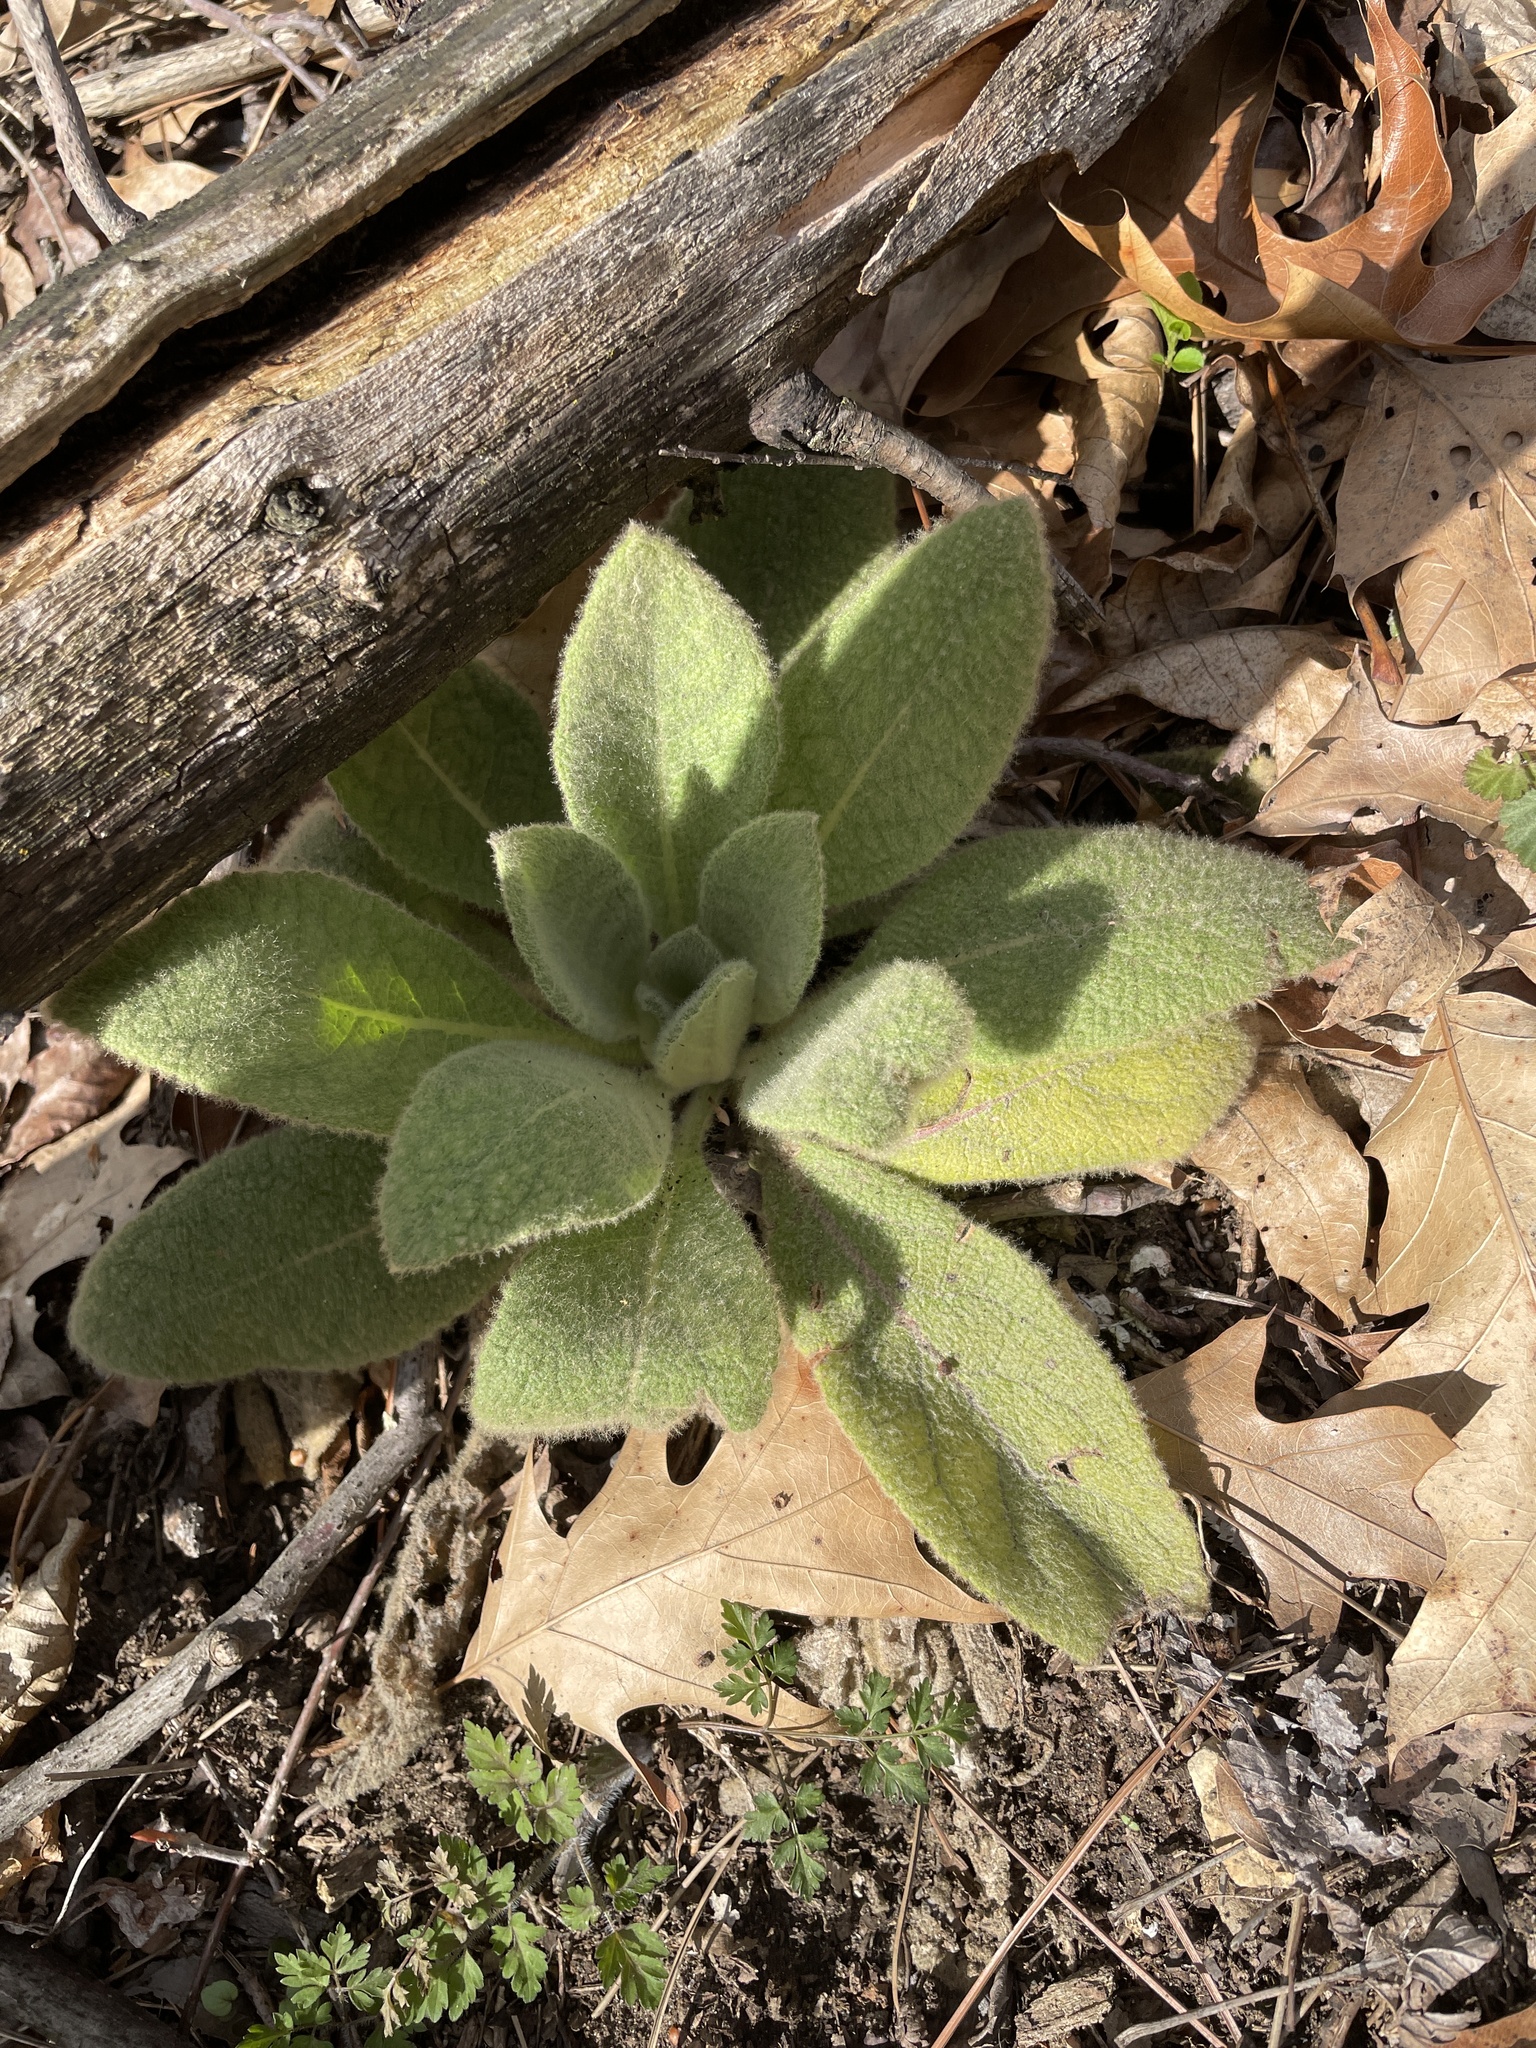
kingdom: Plantae
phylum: Tracheophyta
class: Magnoliopsida
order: Lamiales
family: Scrophulariaceae
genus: Verbascum
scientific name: Verbascum thapsus
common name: Common mullein
